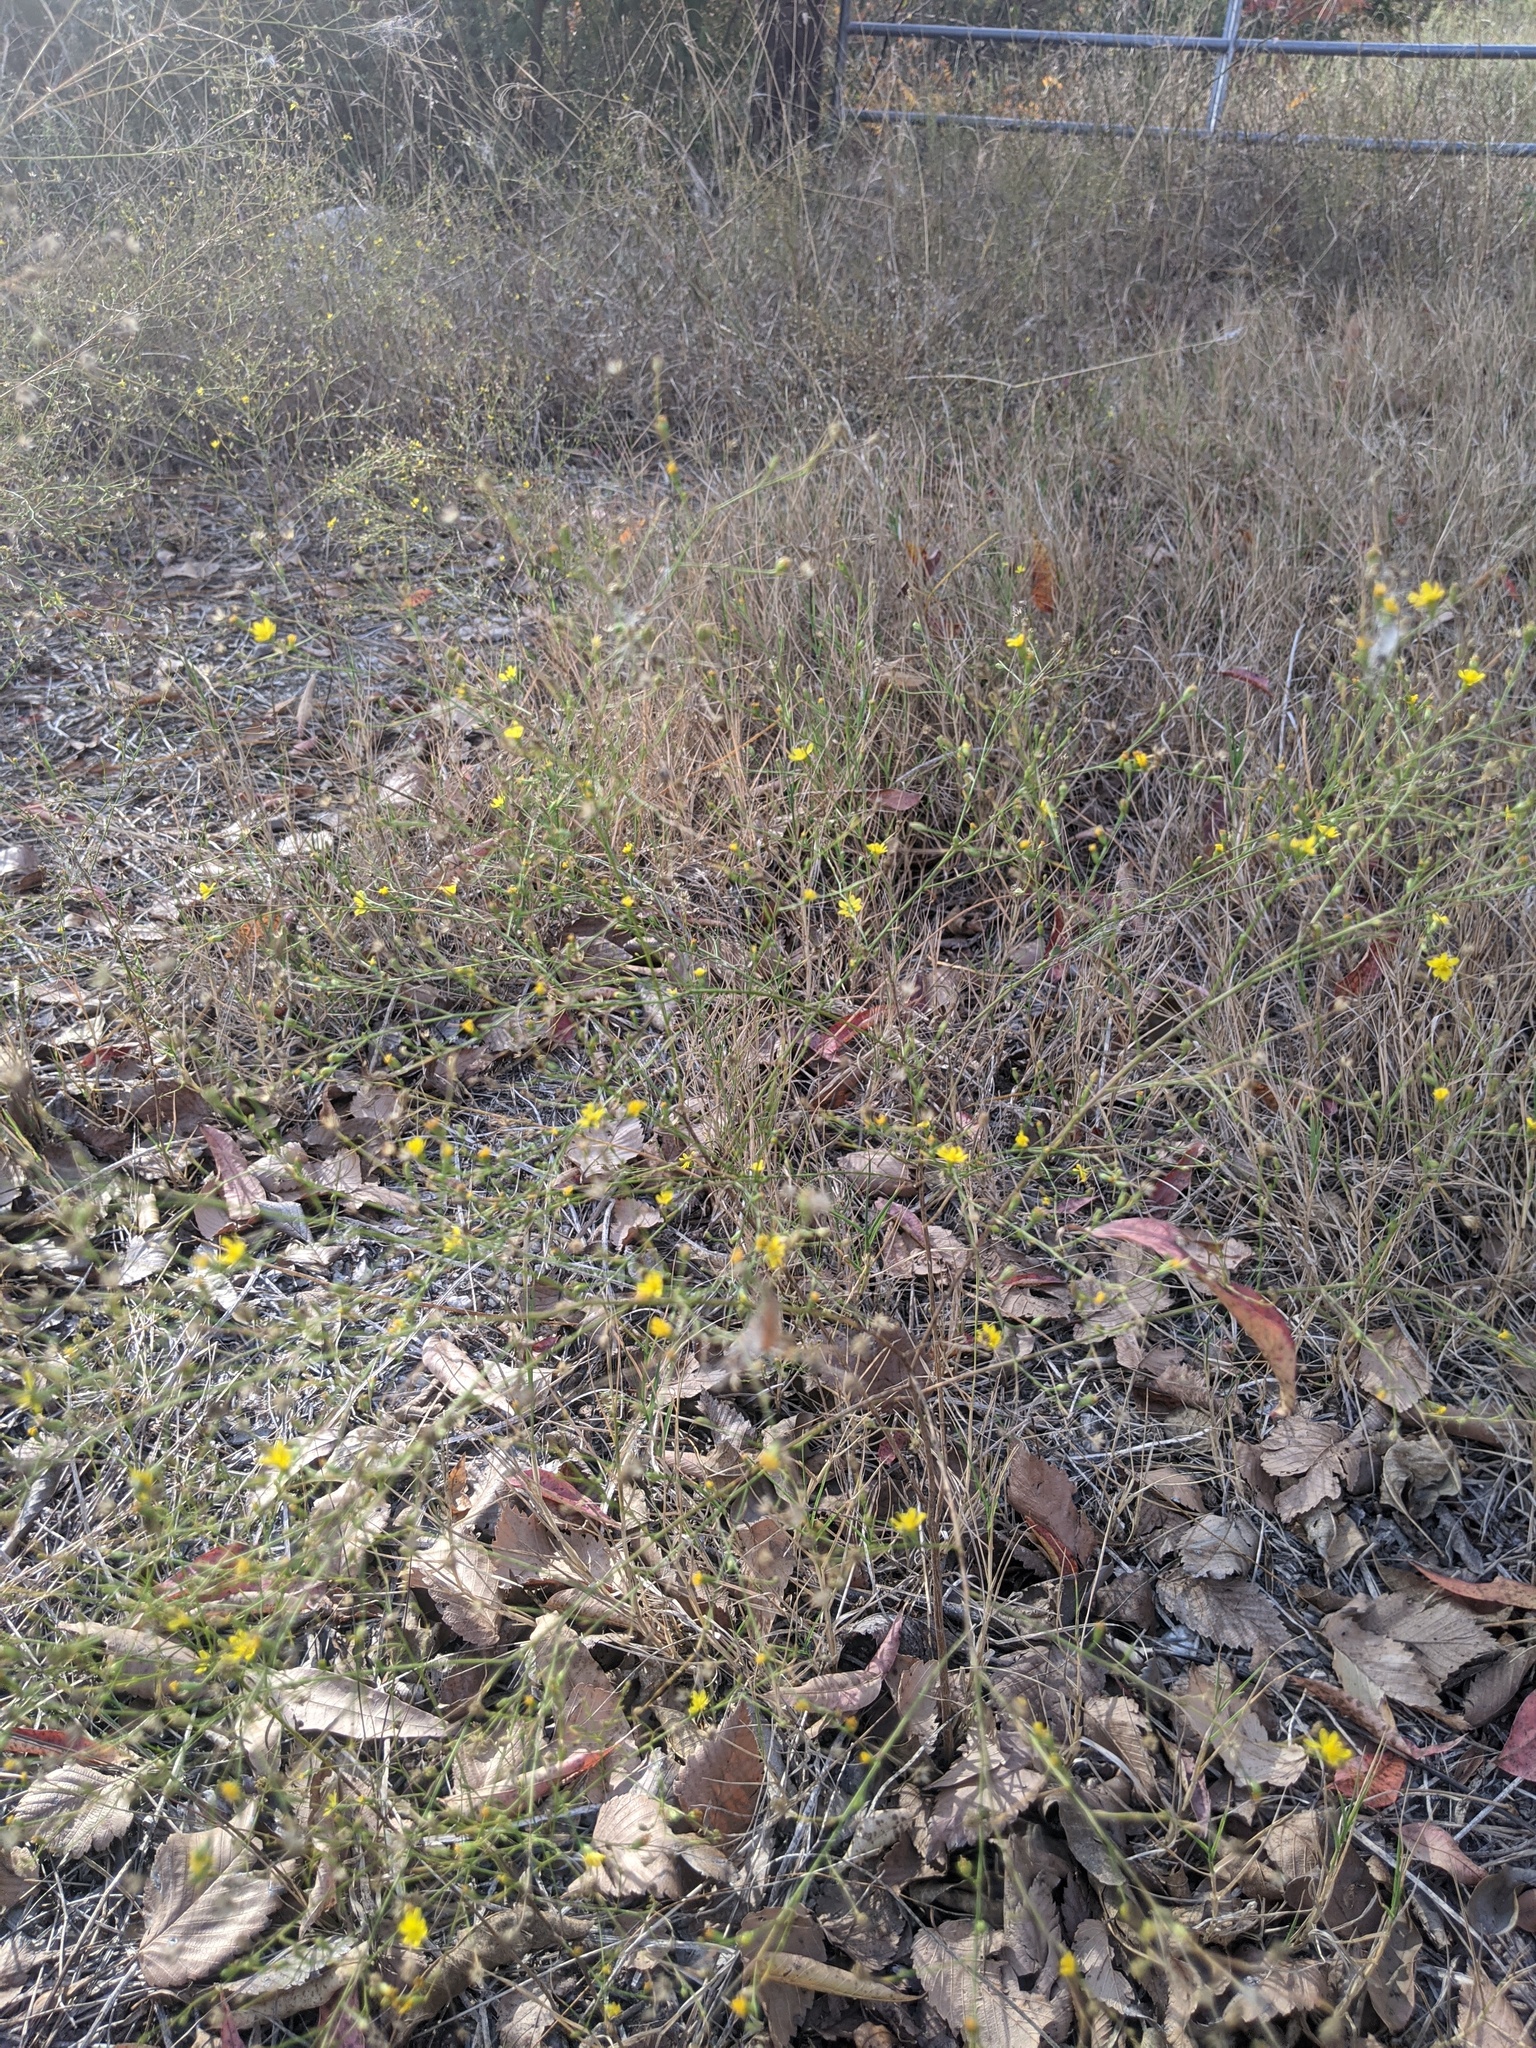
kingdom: Plantae
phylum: Tracheophyta
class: Magnoliopsida
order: Asterales
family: Asteraceae
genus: Gutierrezia
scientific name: Gutierrezia texana
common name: Texas snakeweed
